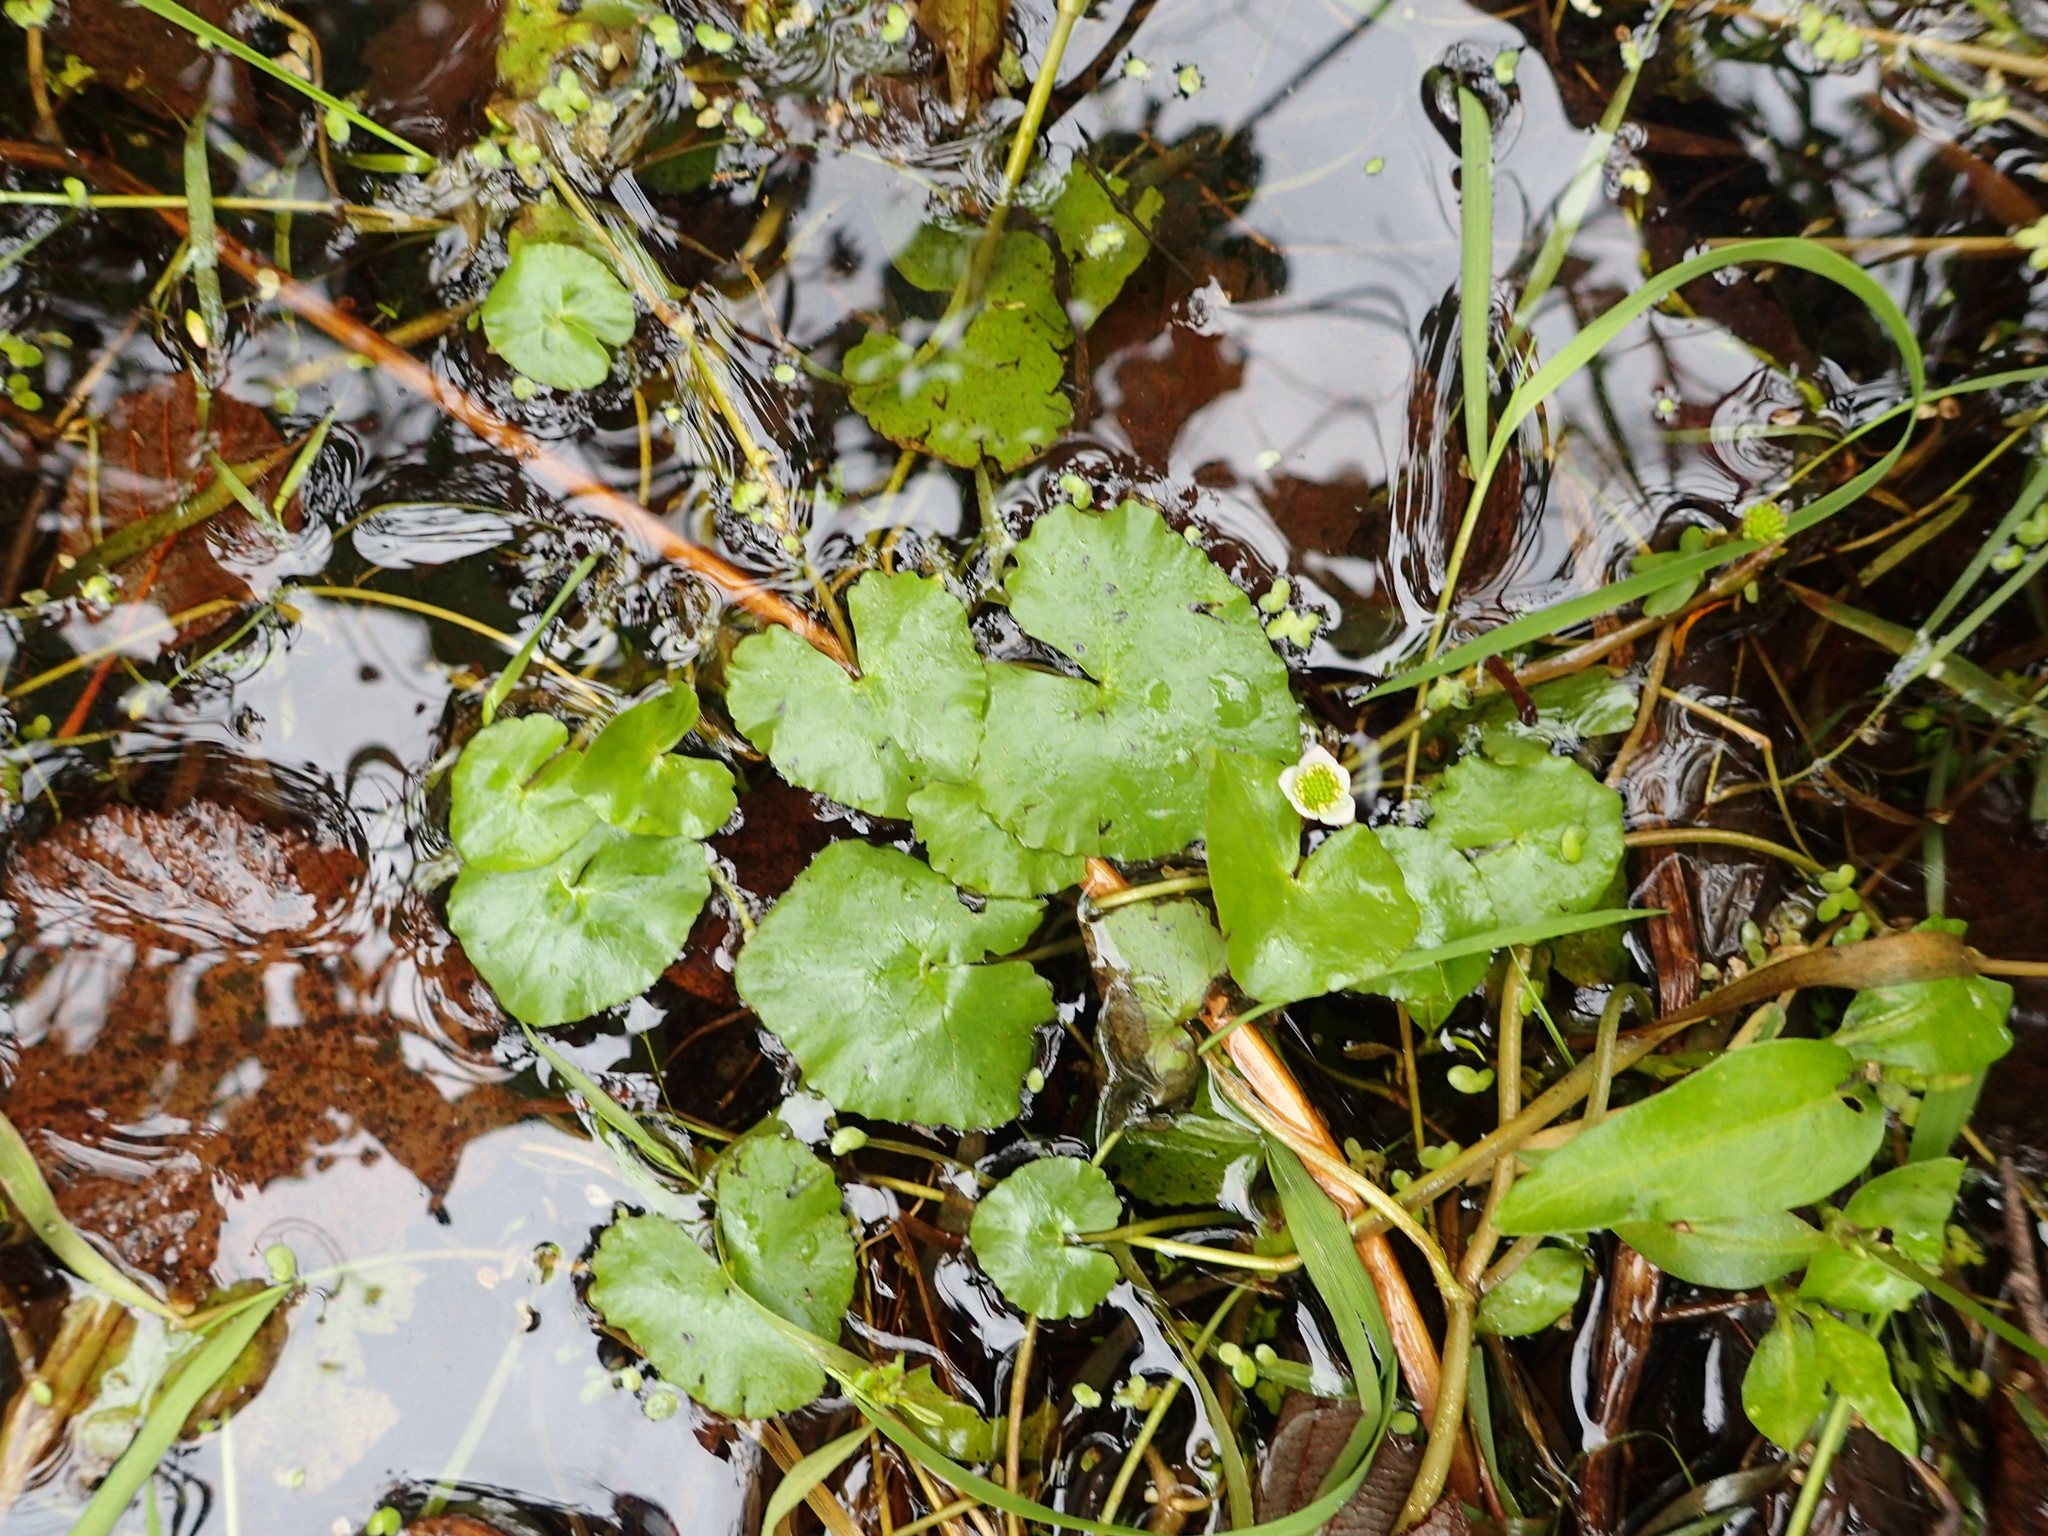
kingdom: Plantae
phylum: Tracheophyta
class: Magnoliopsida
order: Ranunculales
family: Ranunculaceae
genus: Caltha
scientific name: Caltha natans
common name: Floating marsh marigold
